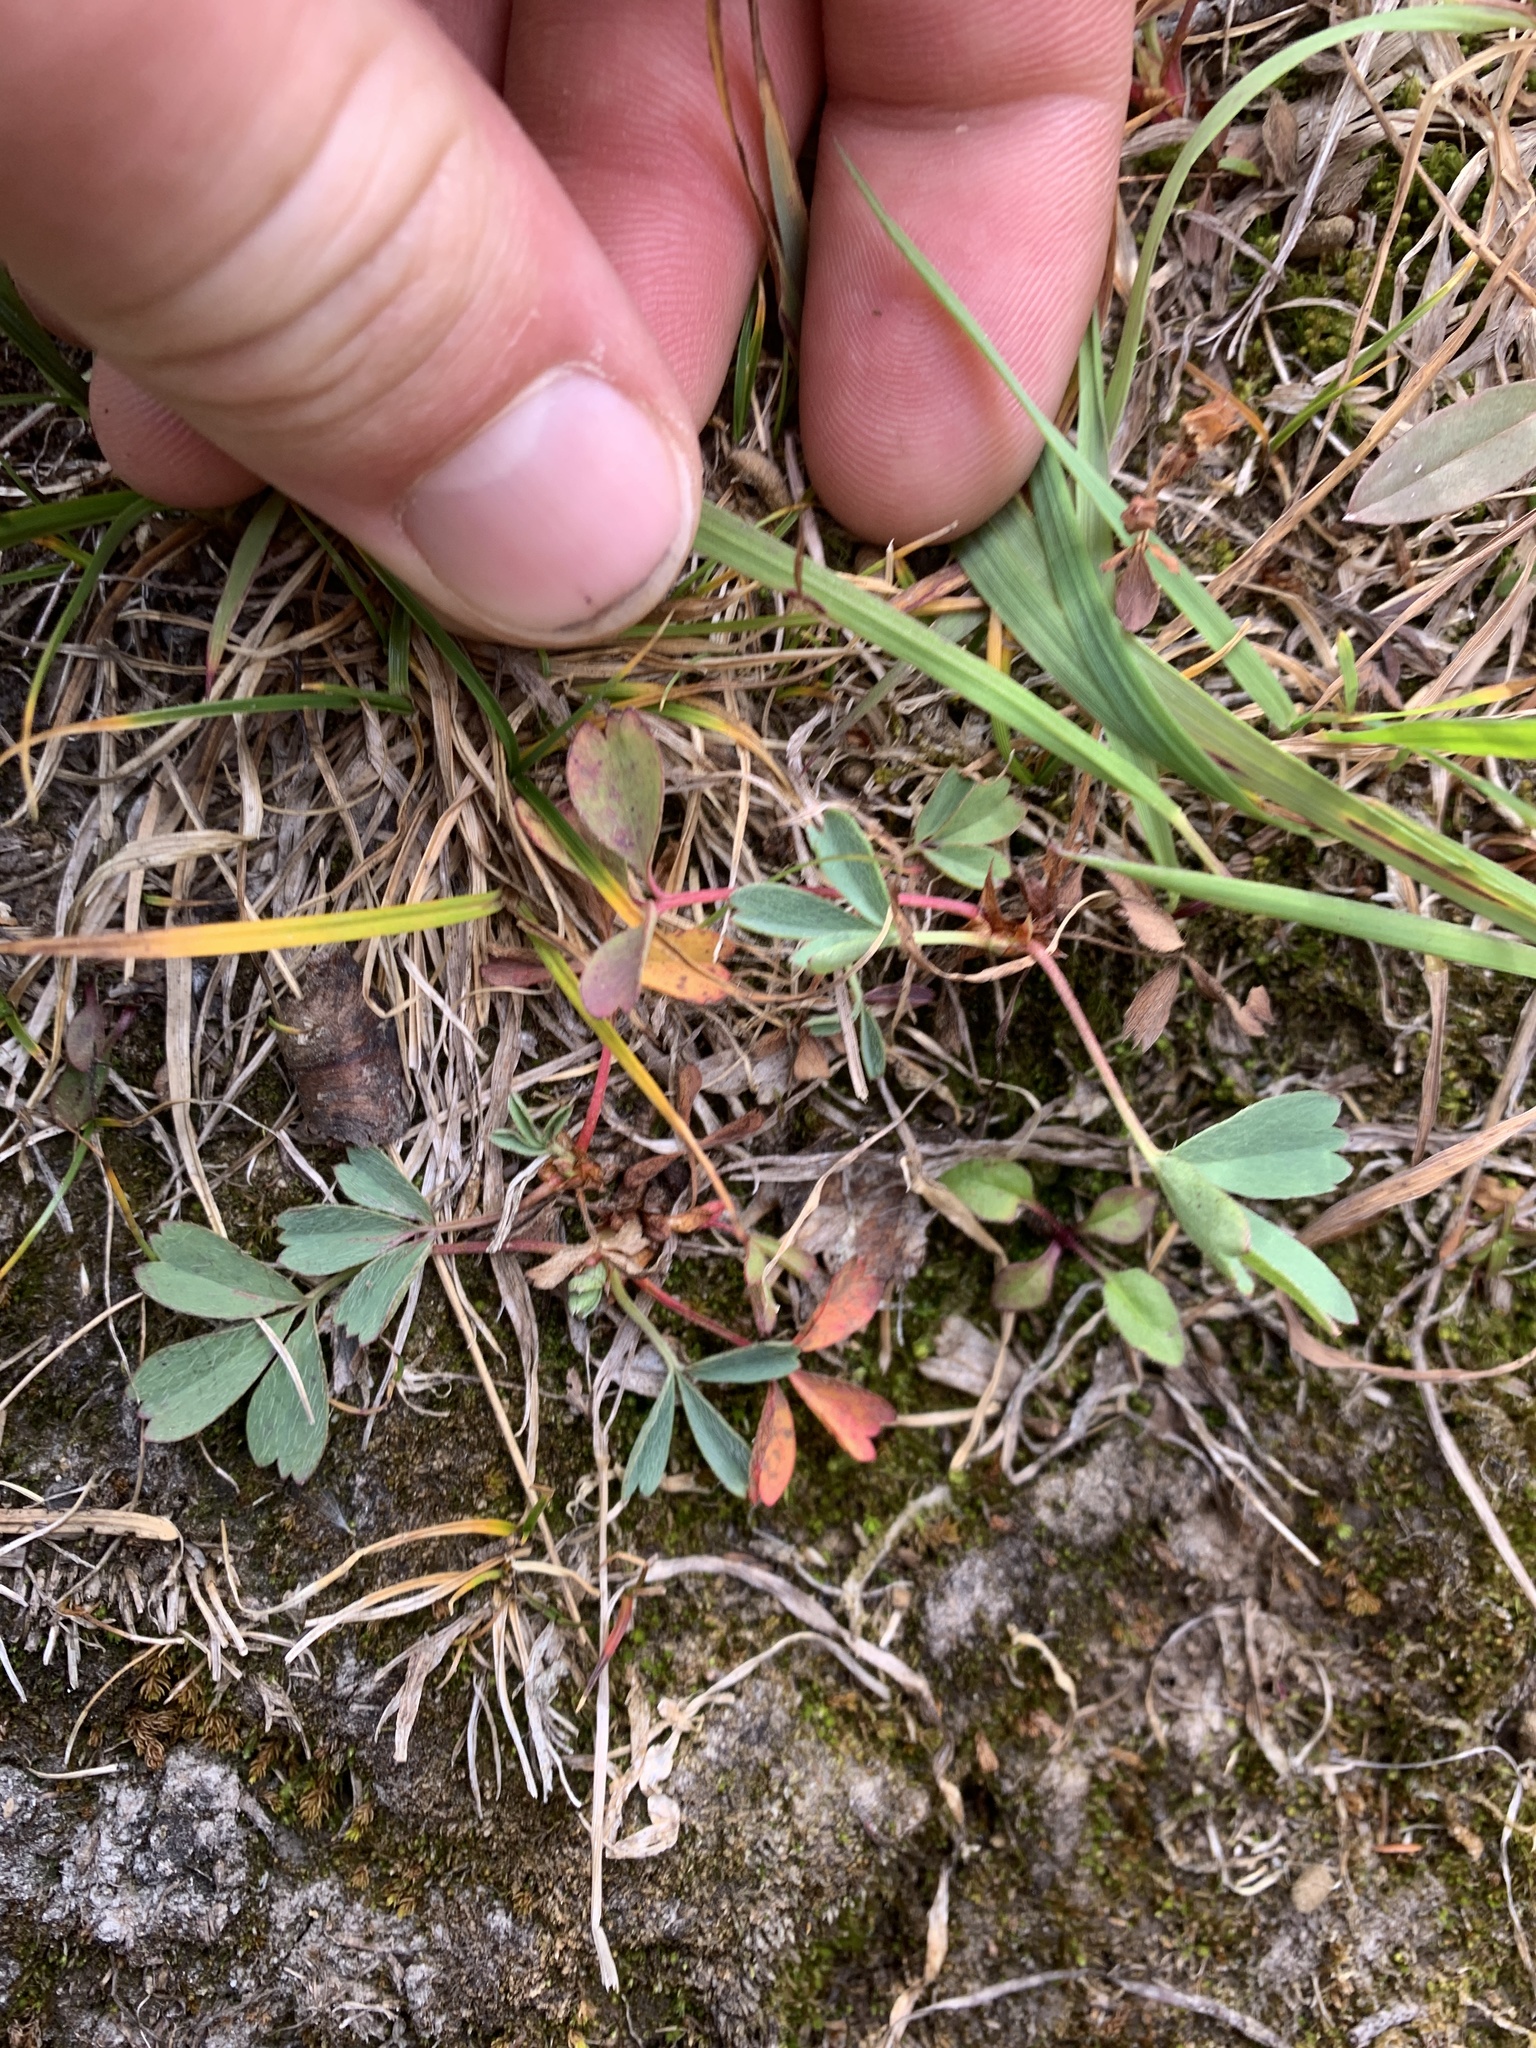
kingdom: Plantae
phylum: Tracheophyta
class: Magnoliopsida
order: Rosales
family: Rosaceae
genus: Sibbaldia
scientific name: Sibbaldia procumbens
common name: Creeping sibbaldia
